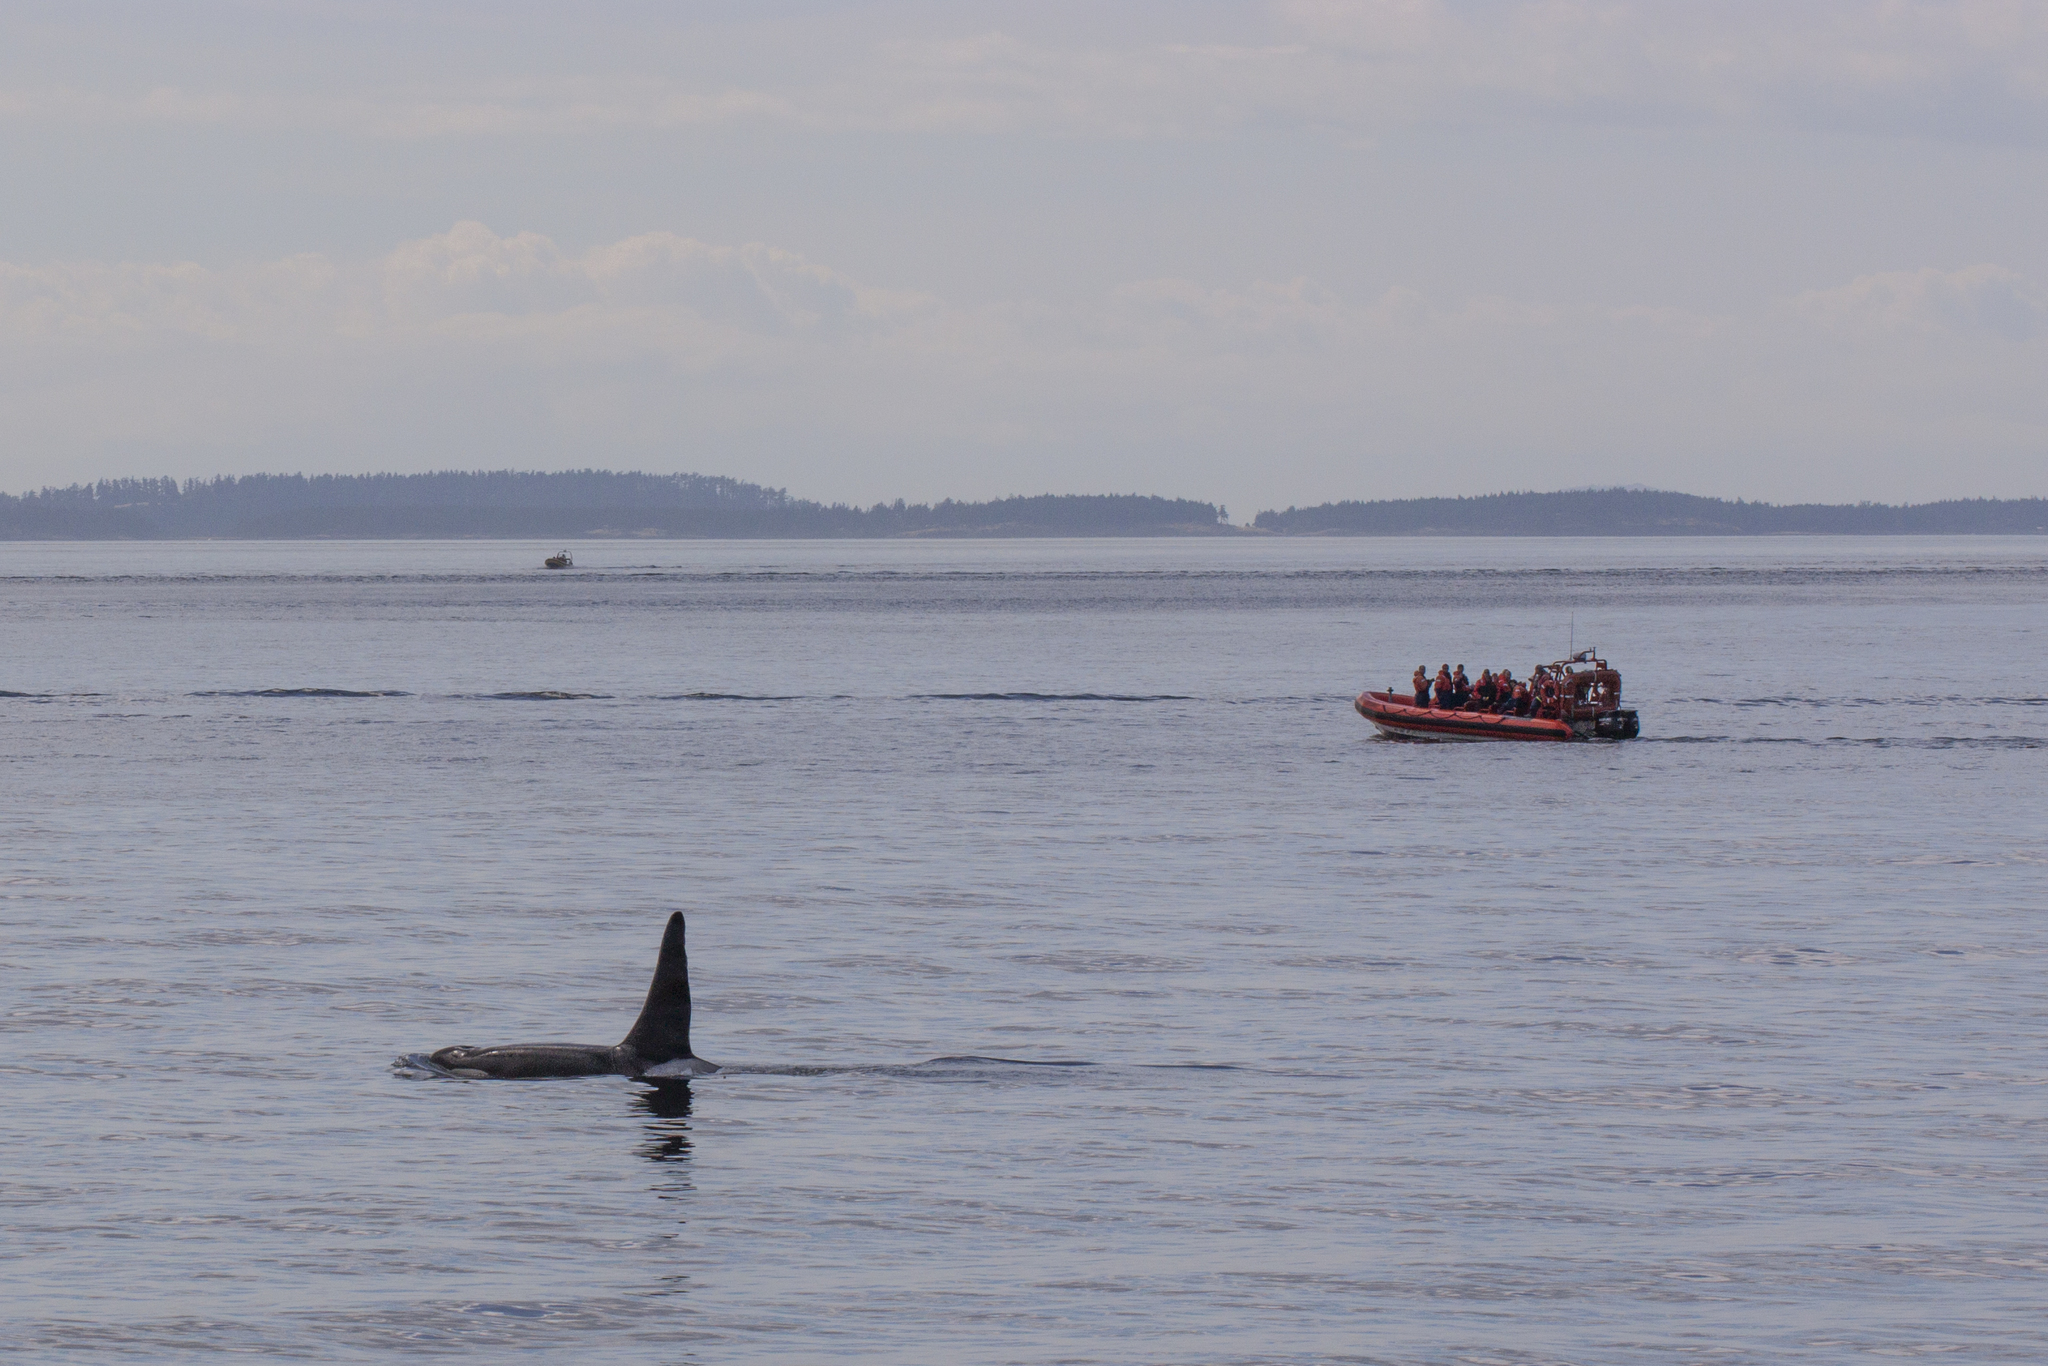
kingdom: Animalia
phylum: Chordata
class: Mammalia
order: Cetacea
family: Delphinidae
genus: Orcinus
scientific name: Orcinus orca
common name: Killer whale
